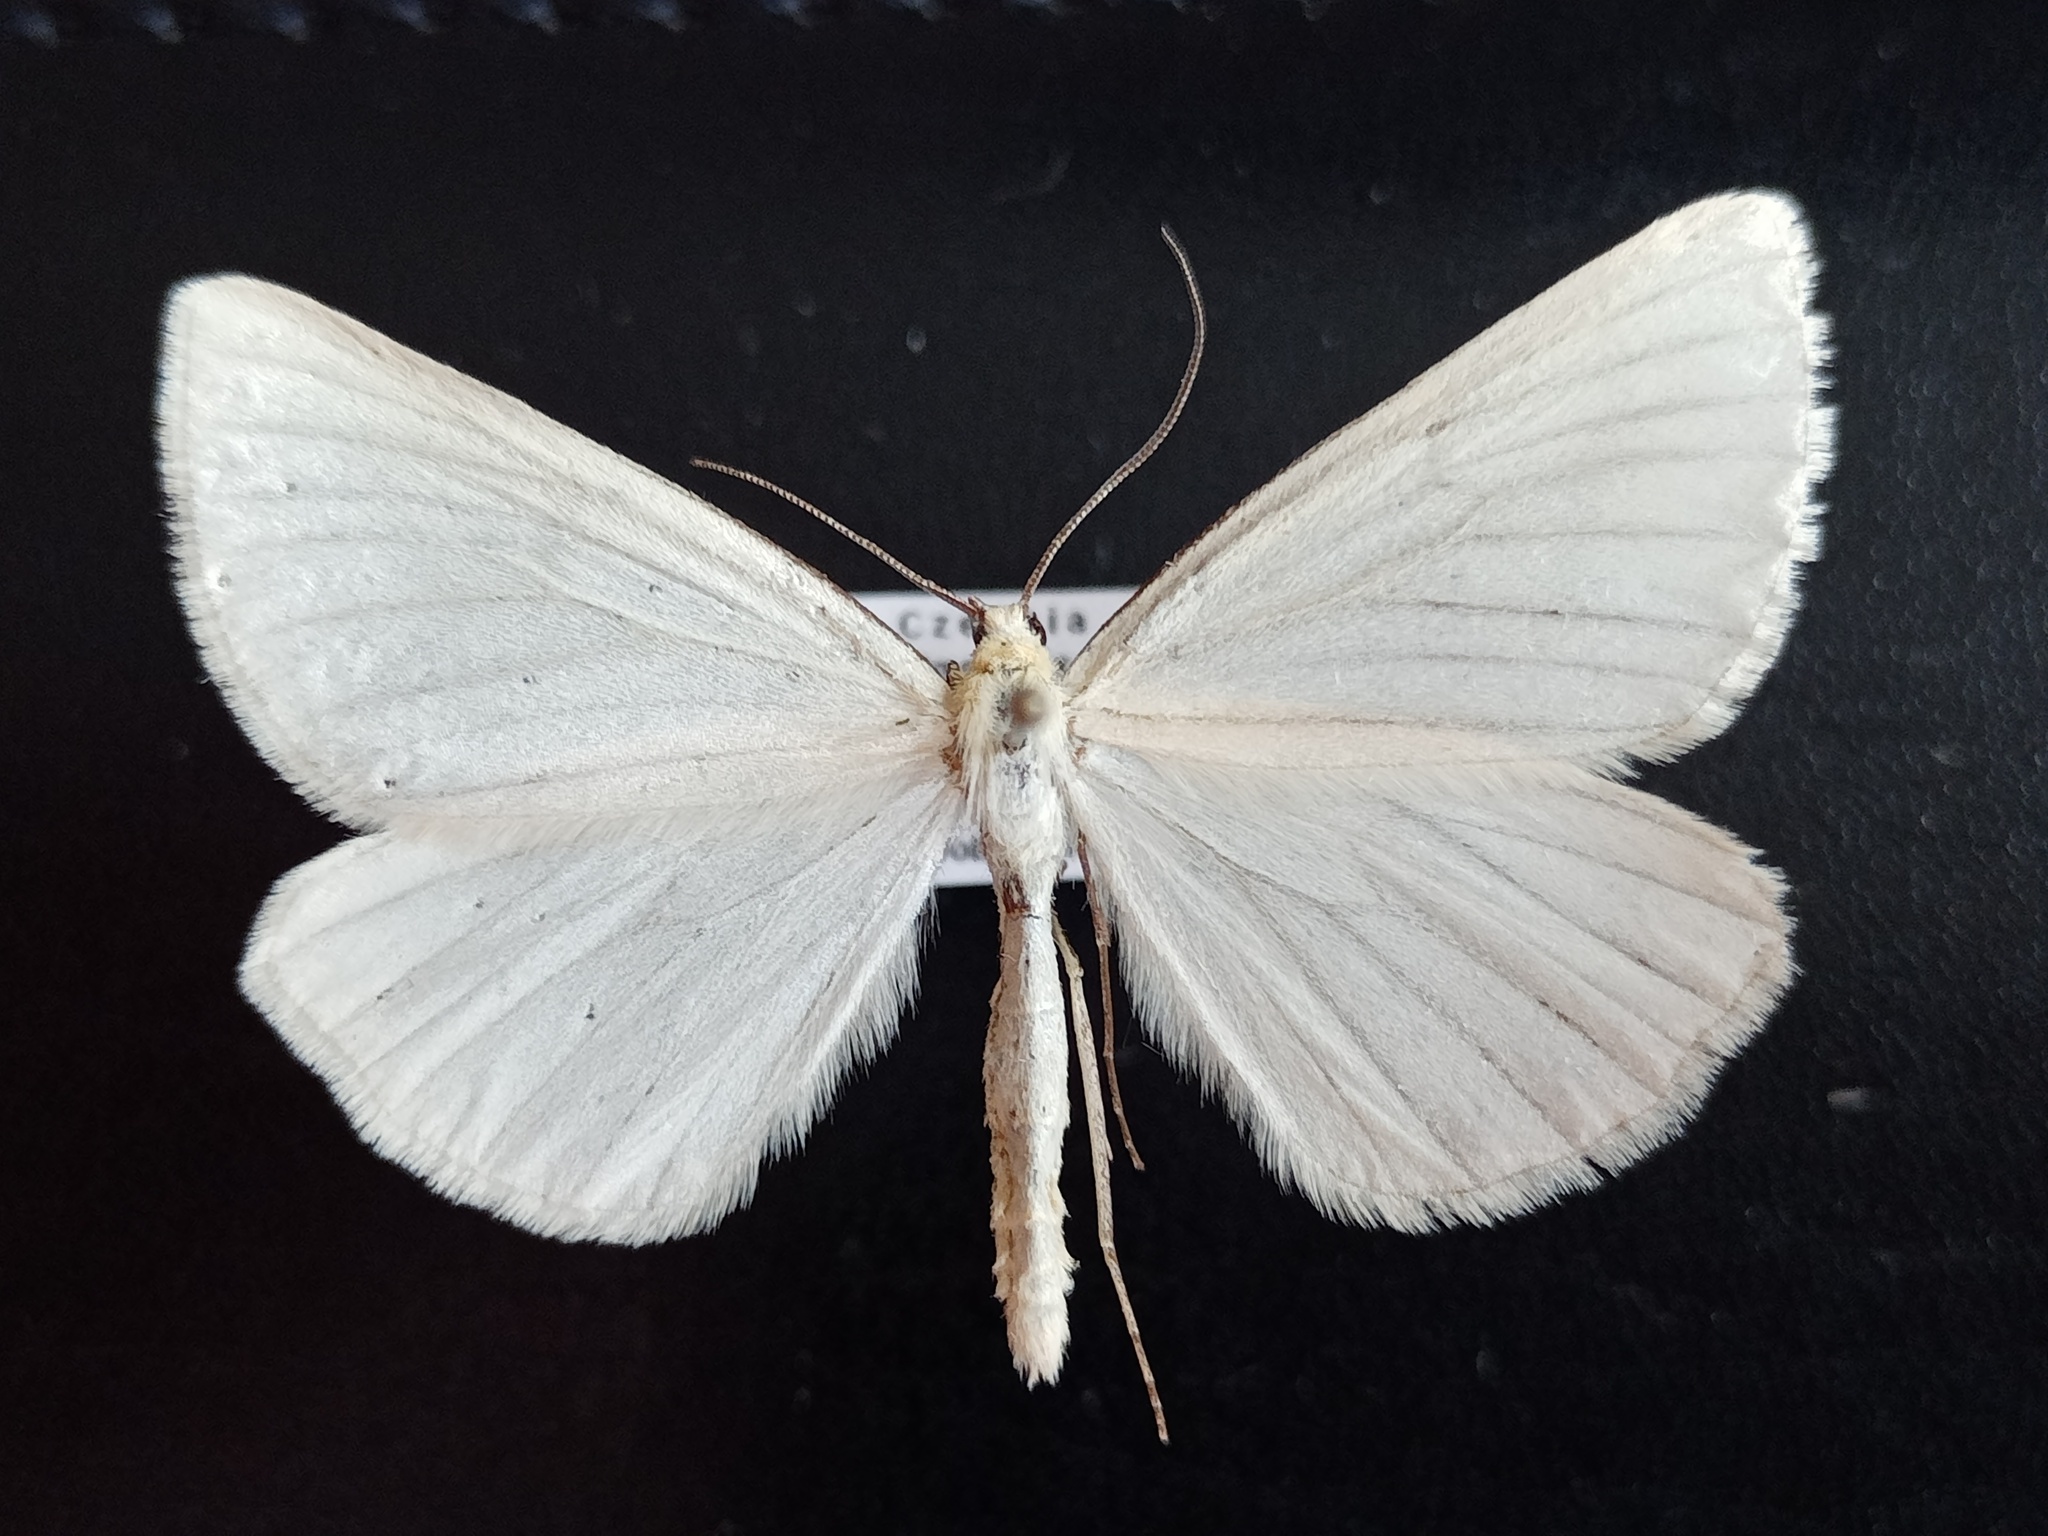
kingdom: Animalia
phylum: Arthropoda
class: Insecta
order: Lepidoptera
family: Geometridae
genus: Siona
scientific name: Siona lineata
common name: Black-veined moth
